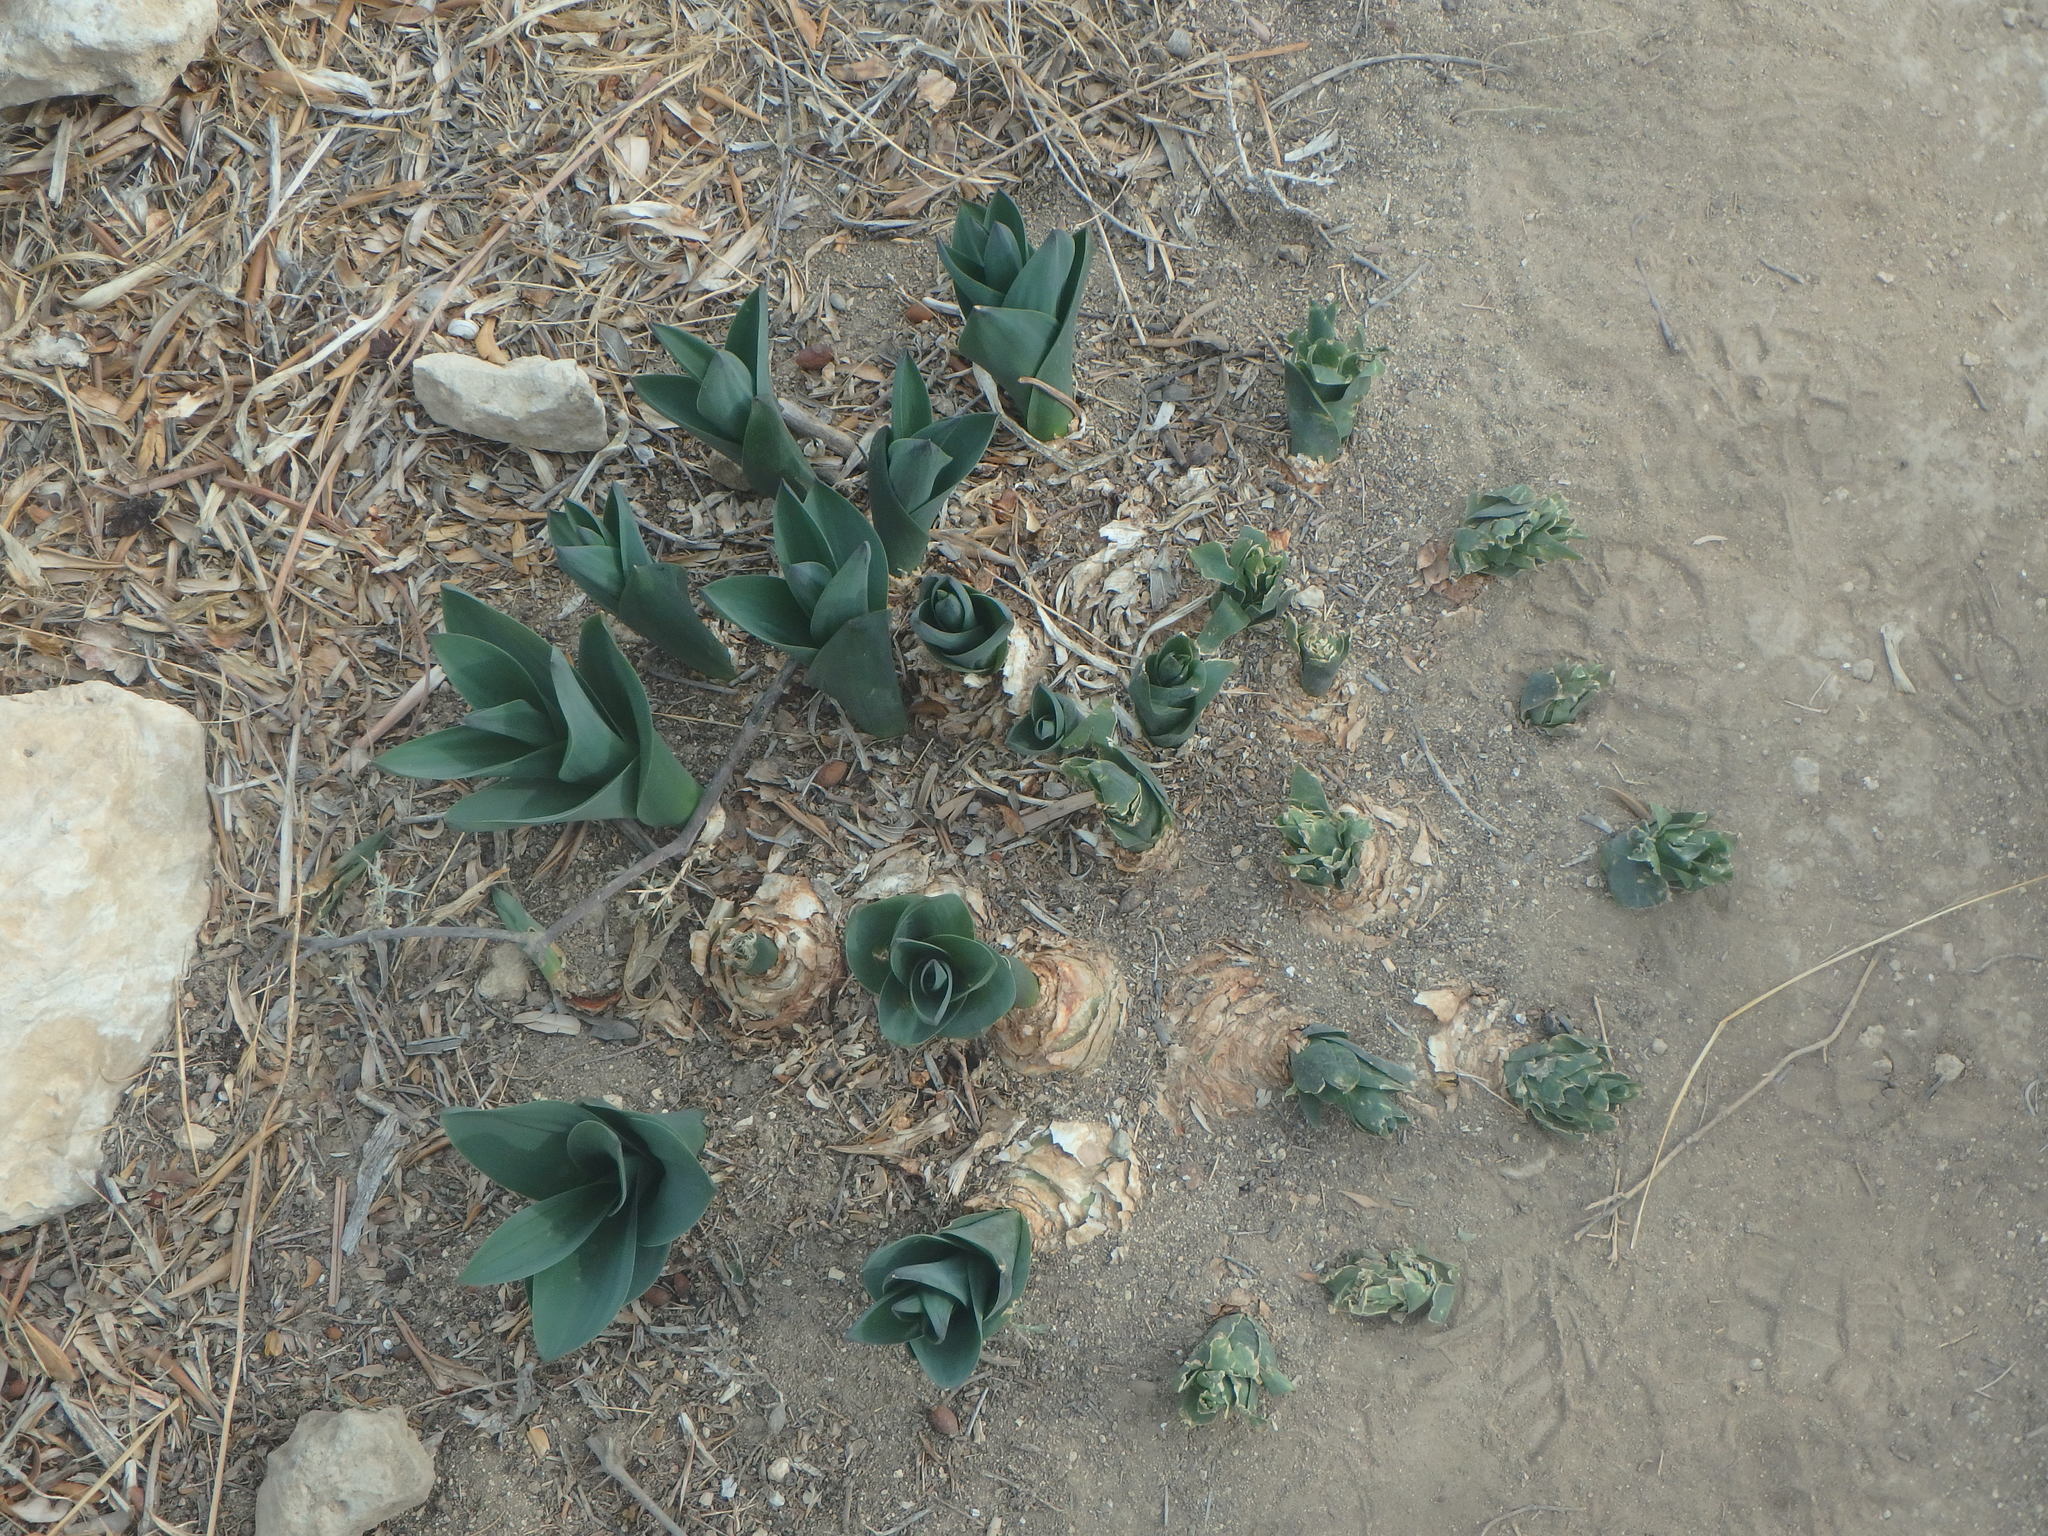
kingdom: Plantae
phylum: Tracheophyta
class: Liliopsida
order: Asparagales
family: Asparagaceae
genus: Drimia
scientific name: Drimia aphylla
